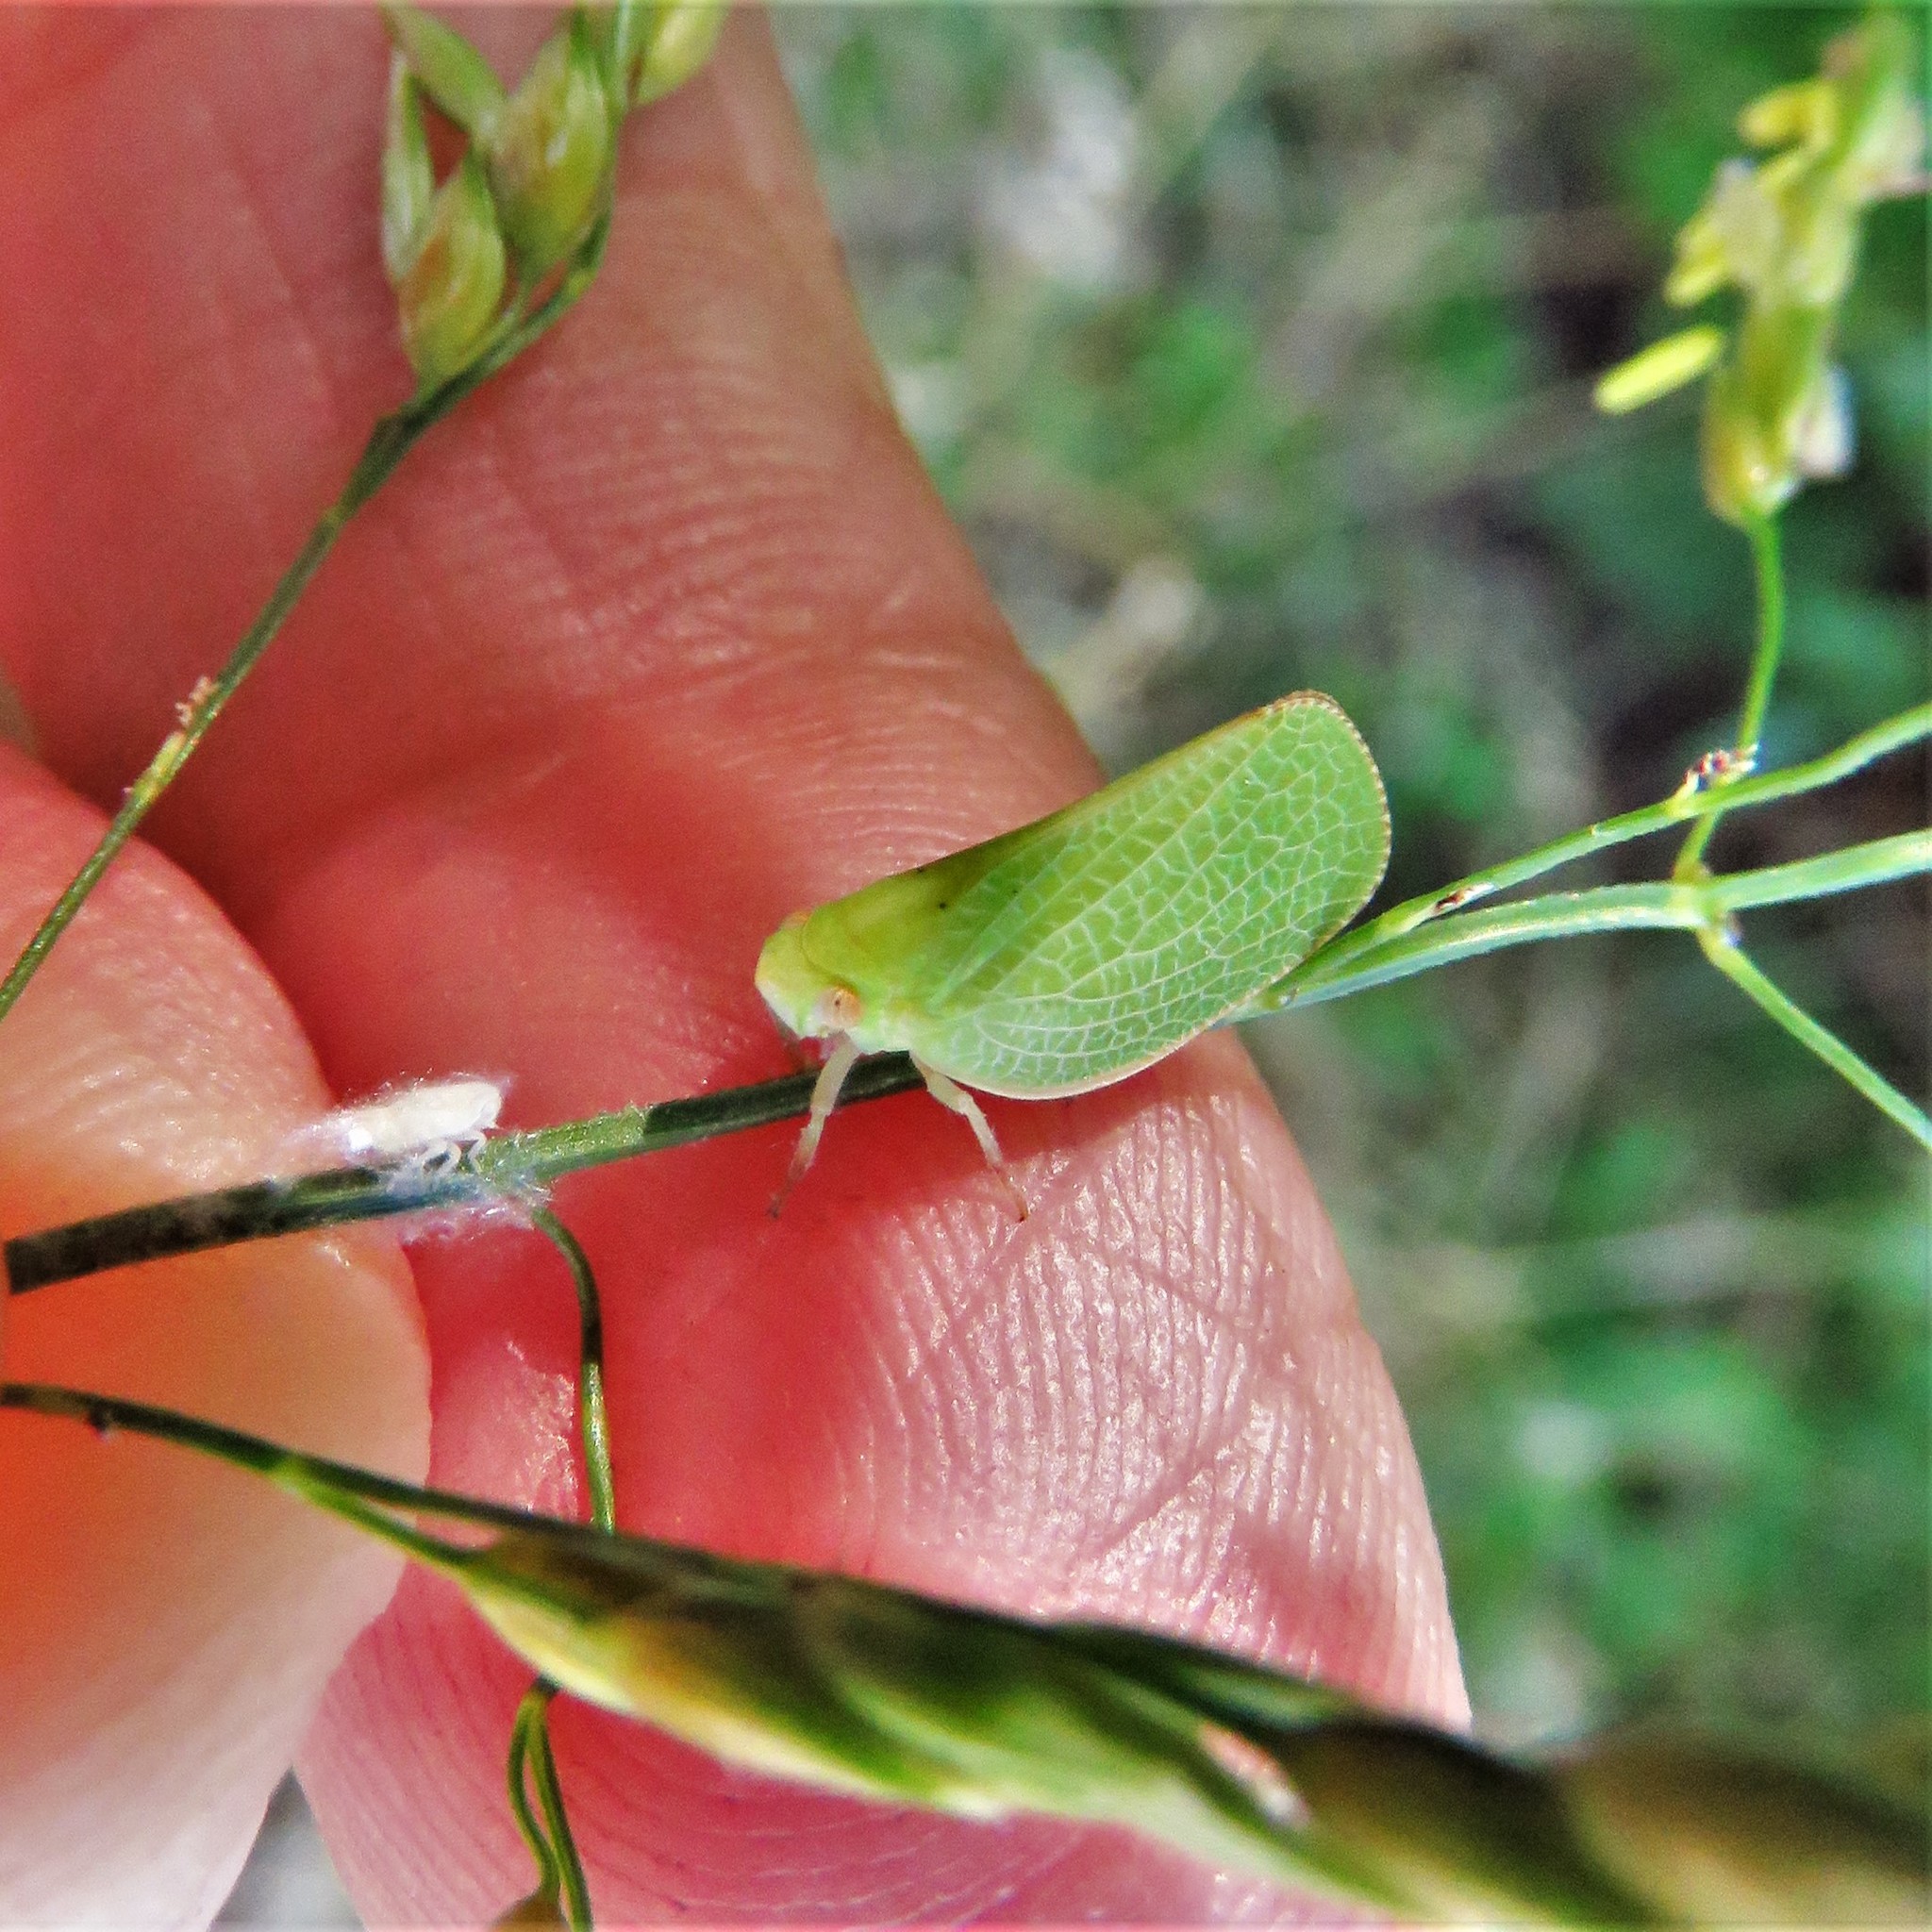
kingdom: Animalia
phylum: Arthropoda
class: Insecta
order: Hemiptera
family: Acanaloniidae
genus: Acanalonia
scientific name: Acanalonia conica
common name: Green cone-headed planthopper
